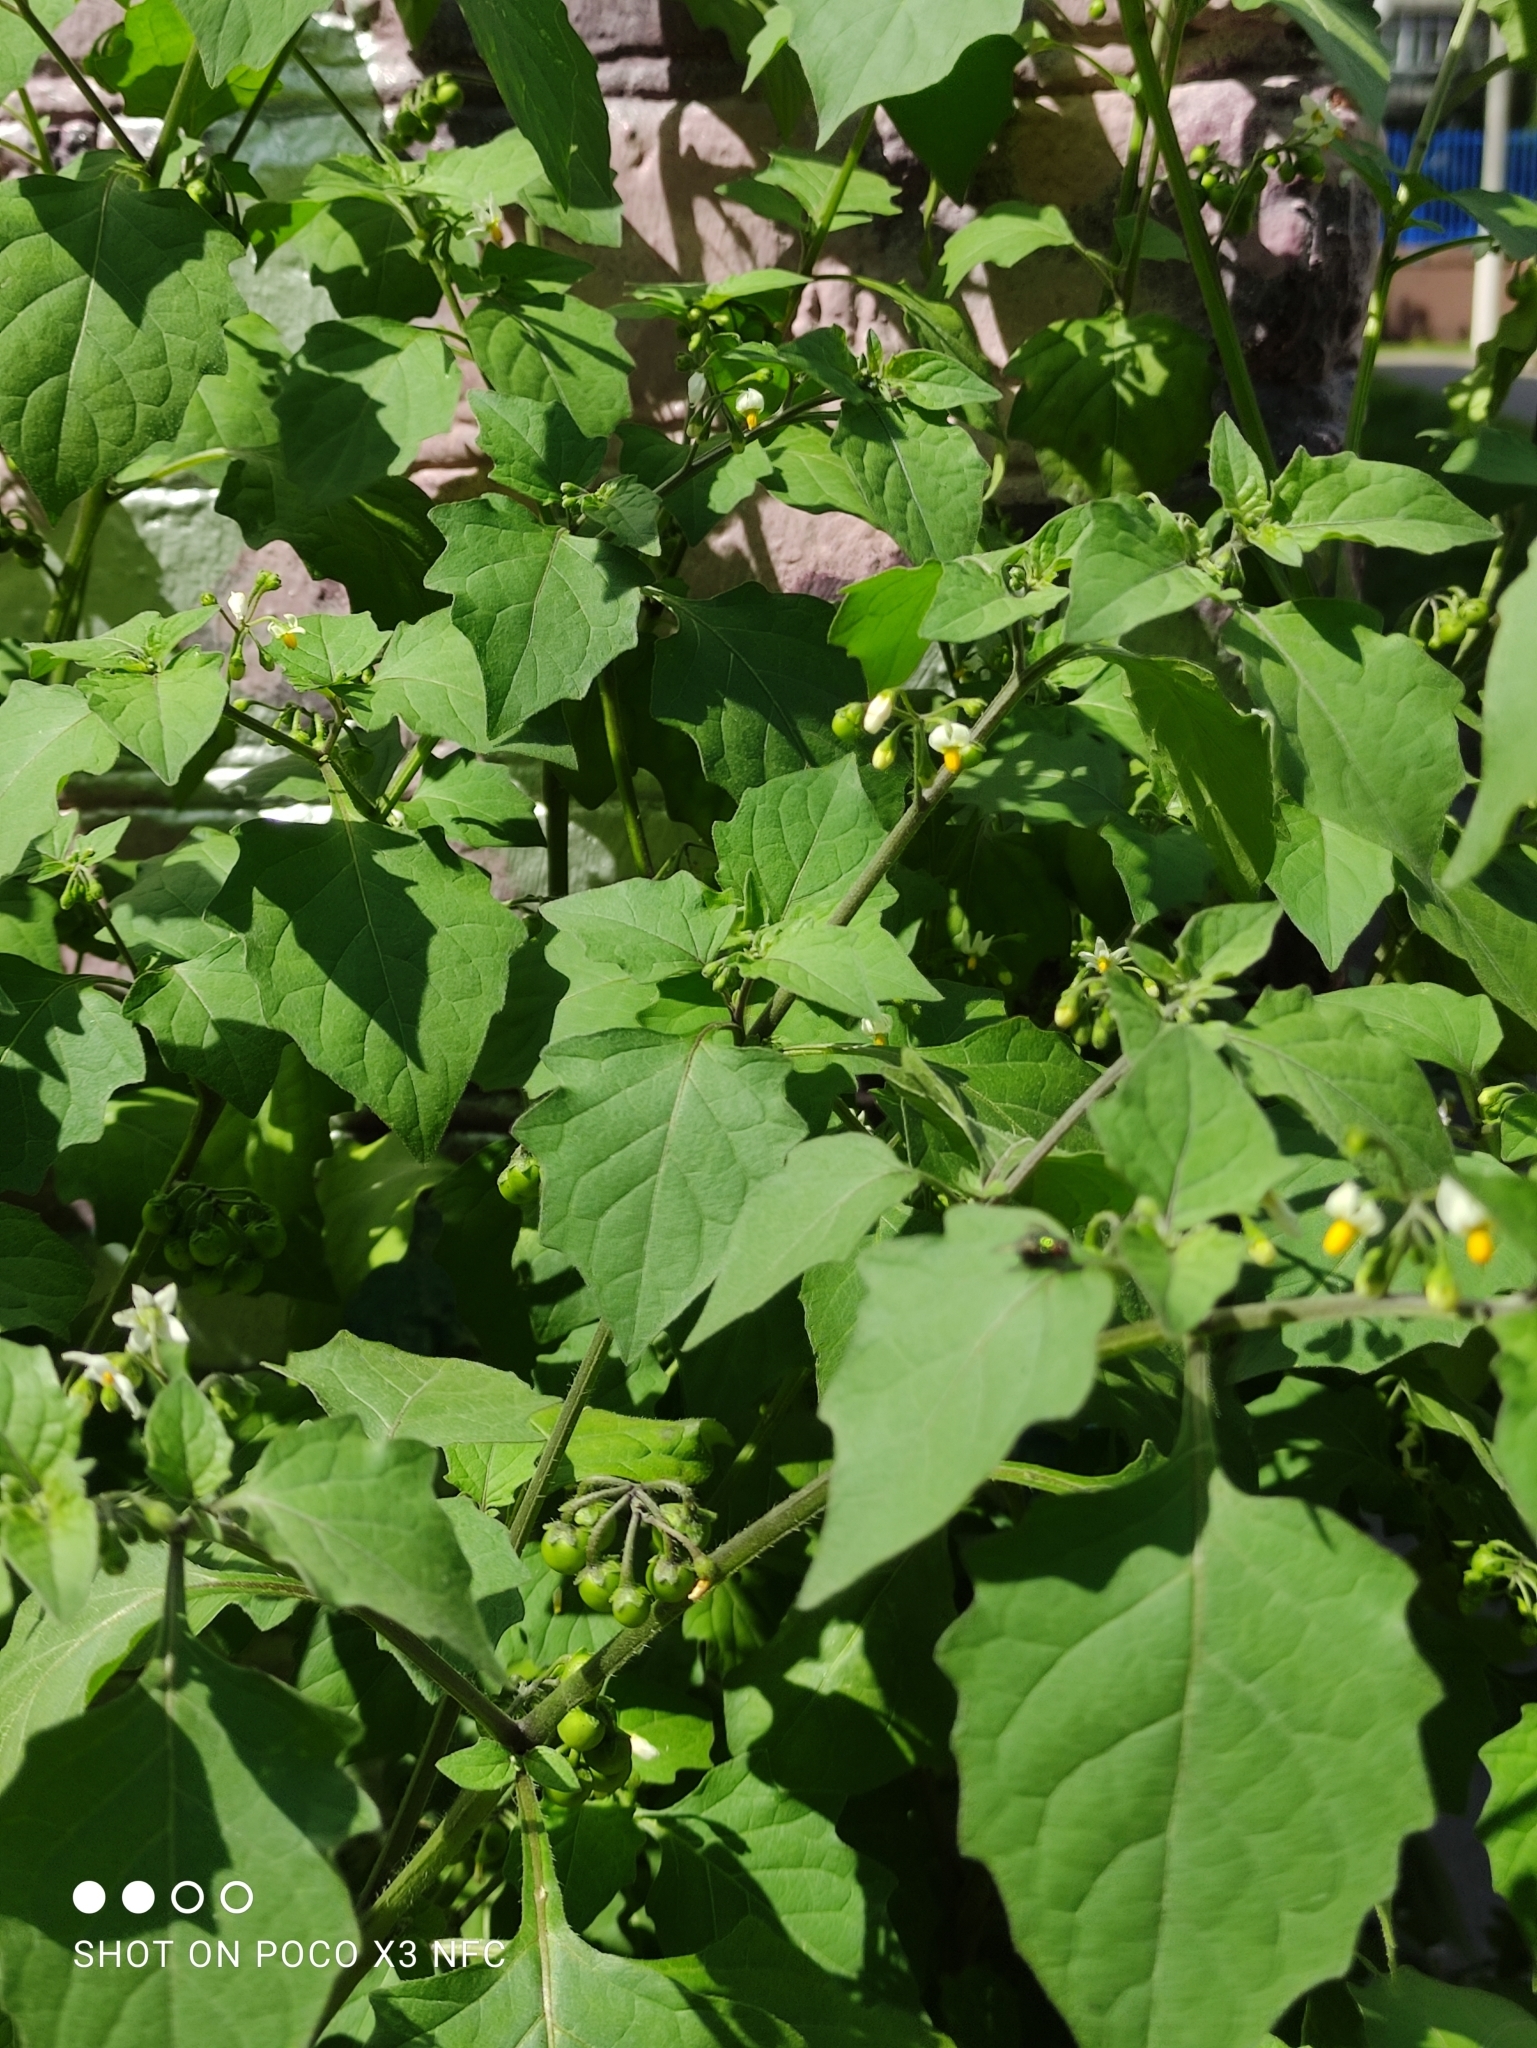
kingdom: Plantae
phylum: Tracheophyta
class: Magnoliopsida
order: Solanales
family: Solanaceae
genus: Solanum
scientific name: Solanum nigrum
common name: Black nightshade
